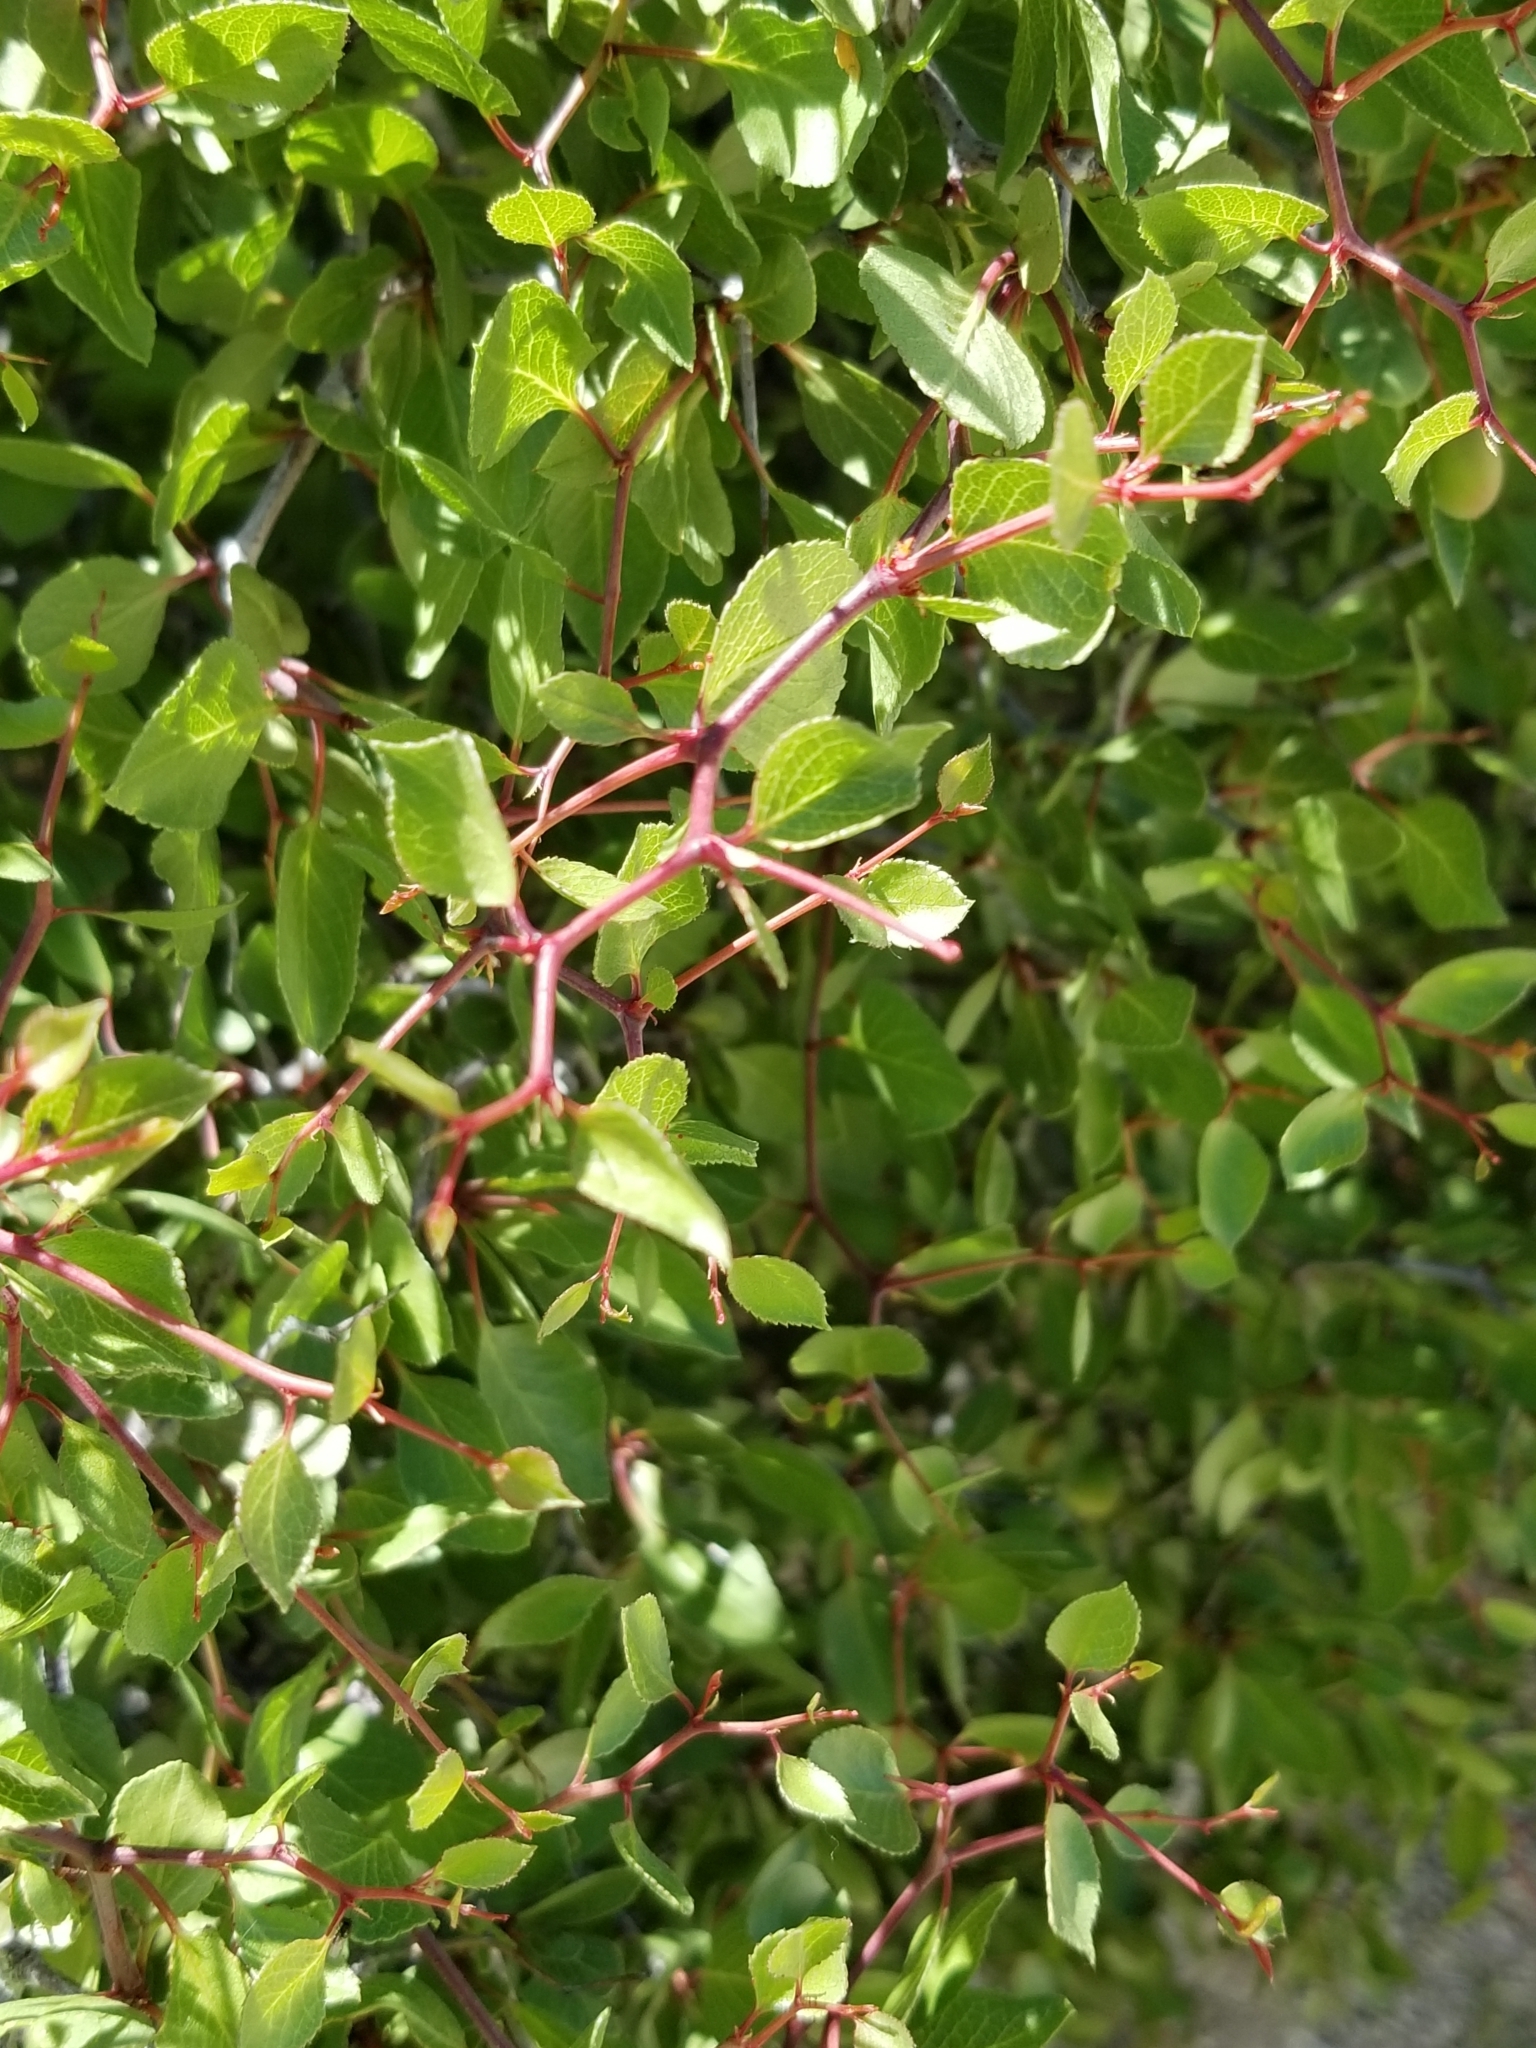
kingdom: Plantae
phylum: Tracheophyta
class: Magnoliopsida
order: Rosales
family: Rosaceae
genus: Prunus
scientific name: Prunus fremontii
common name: Desert apricot
